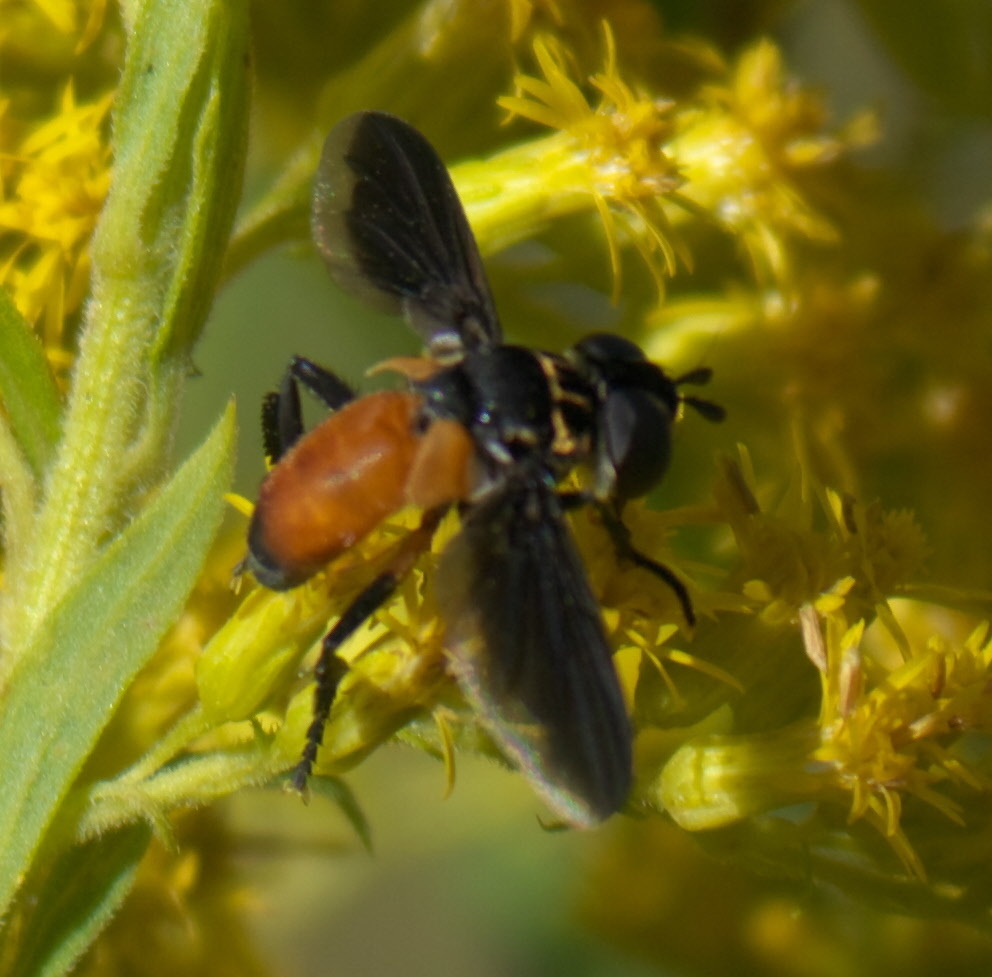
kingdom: Animalia
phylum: Arthropoda
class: Insecta
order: Diptera
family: Tachinidae
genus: Trichopoda
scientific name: Trichopoda pennipes
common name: Tachinid fly
